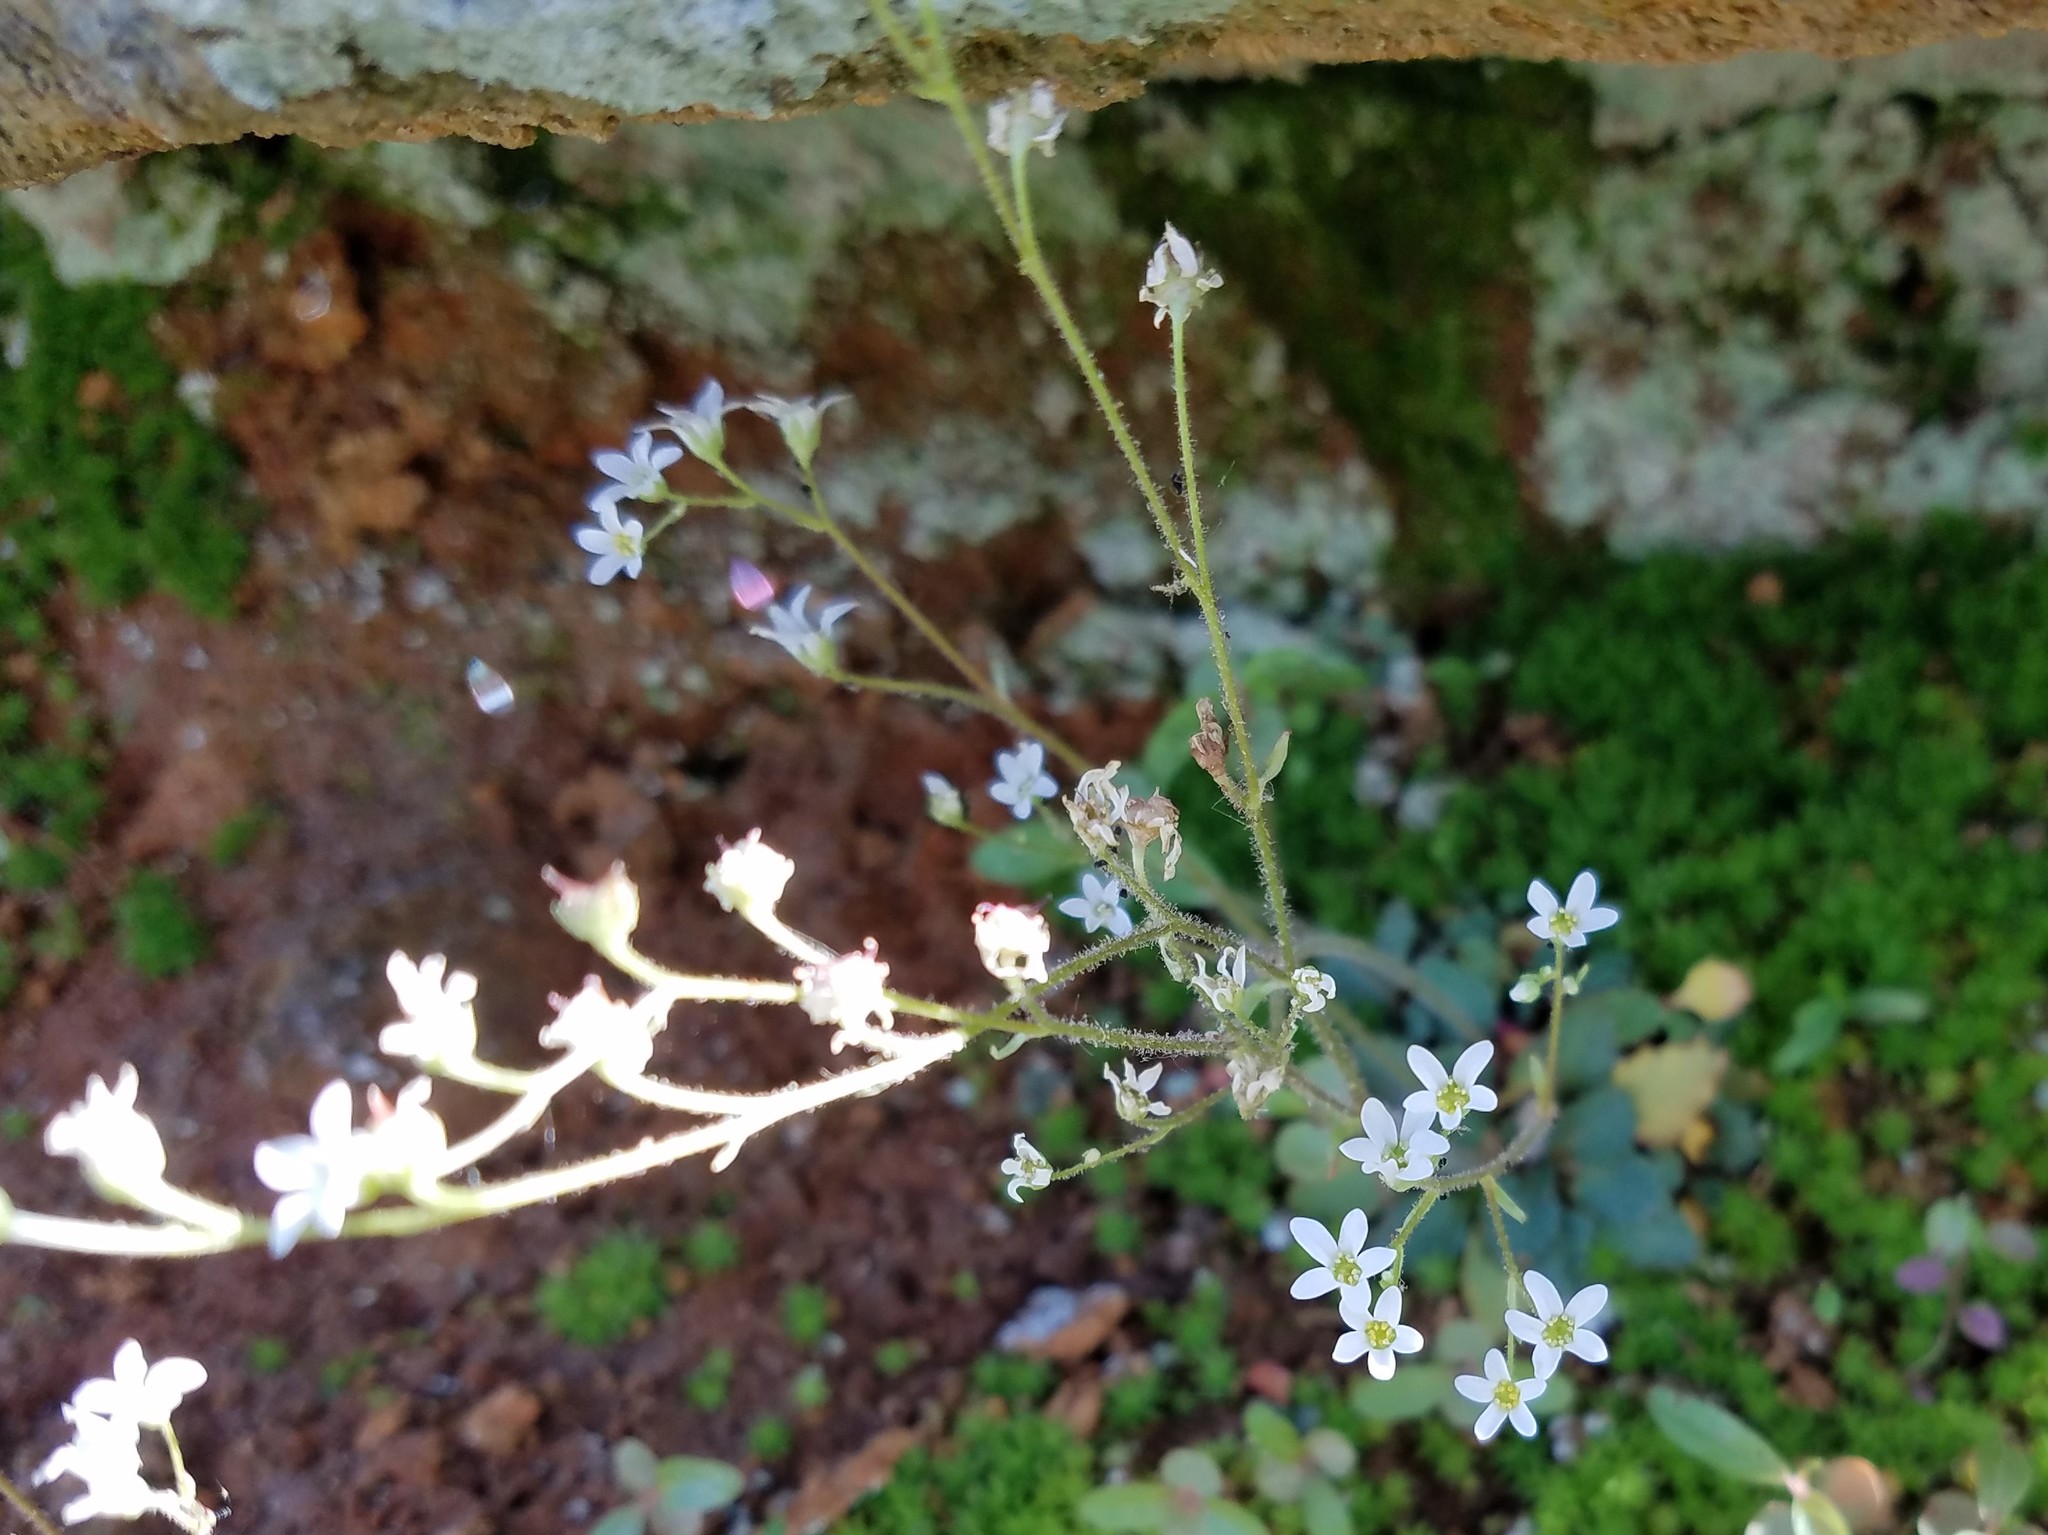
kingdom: Plantae
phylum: Tracheophyta
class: Magnoliopsida
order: Saxifragales
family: Saxifragaceae
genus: Micranthes
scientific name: Micranthes virginiensis
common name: Early saxifrage
